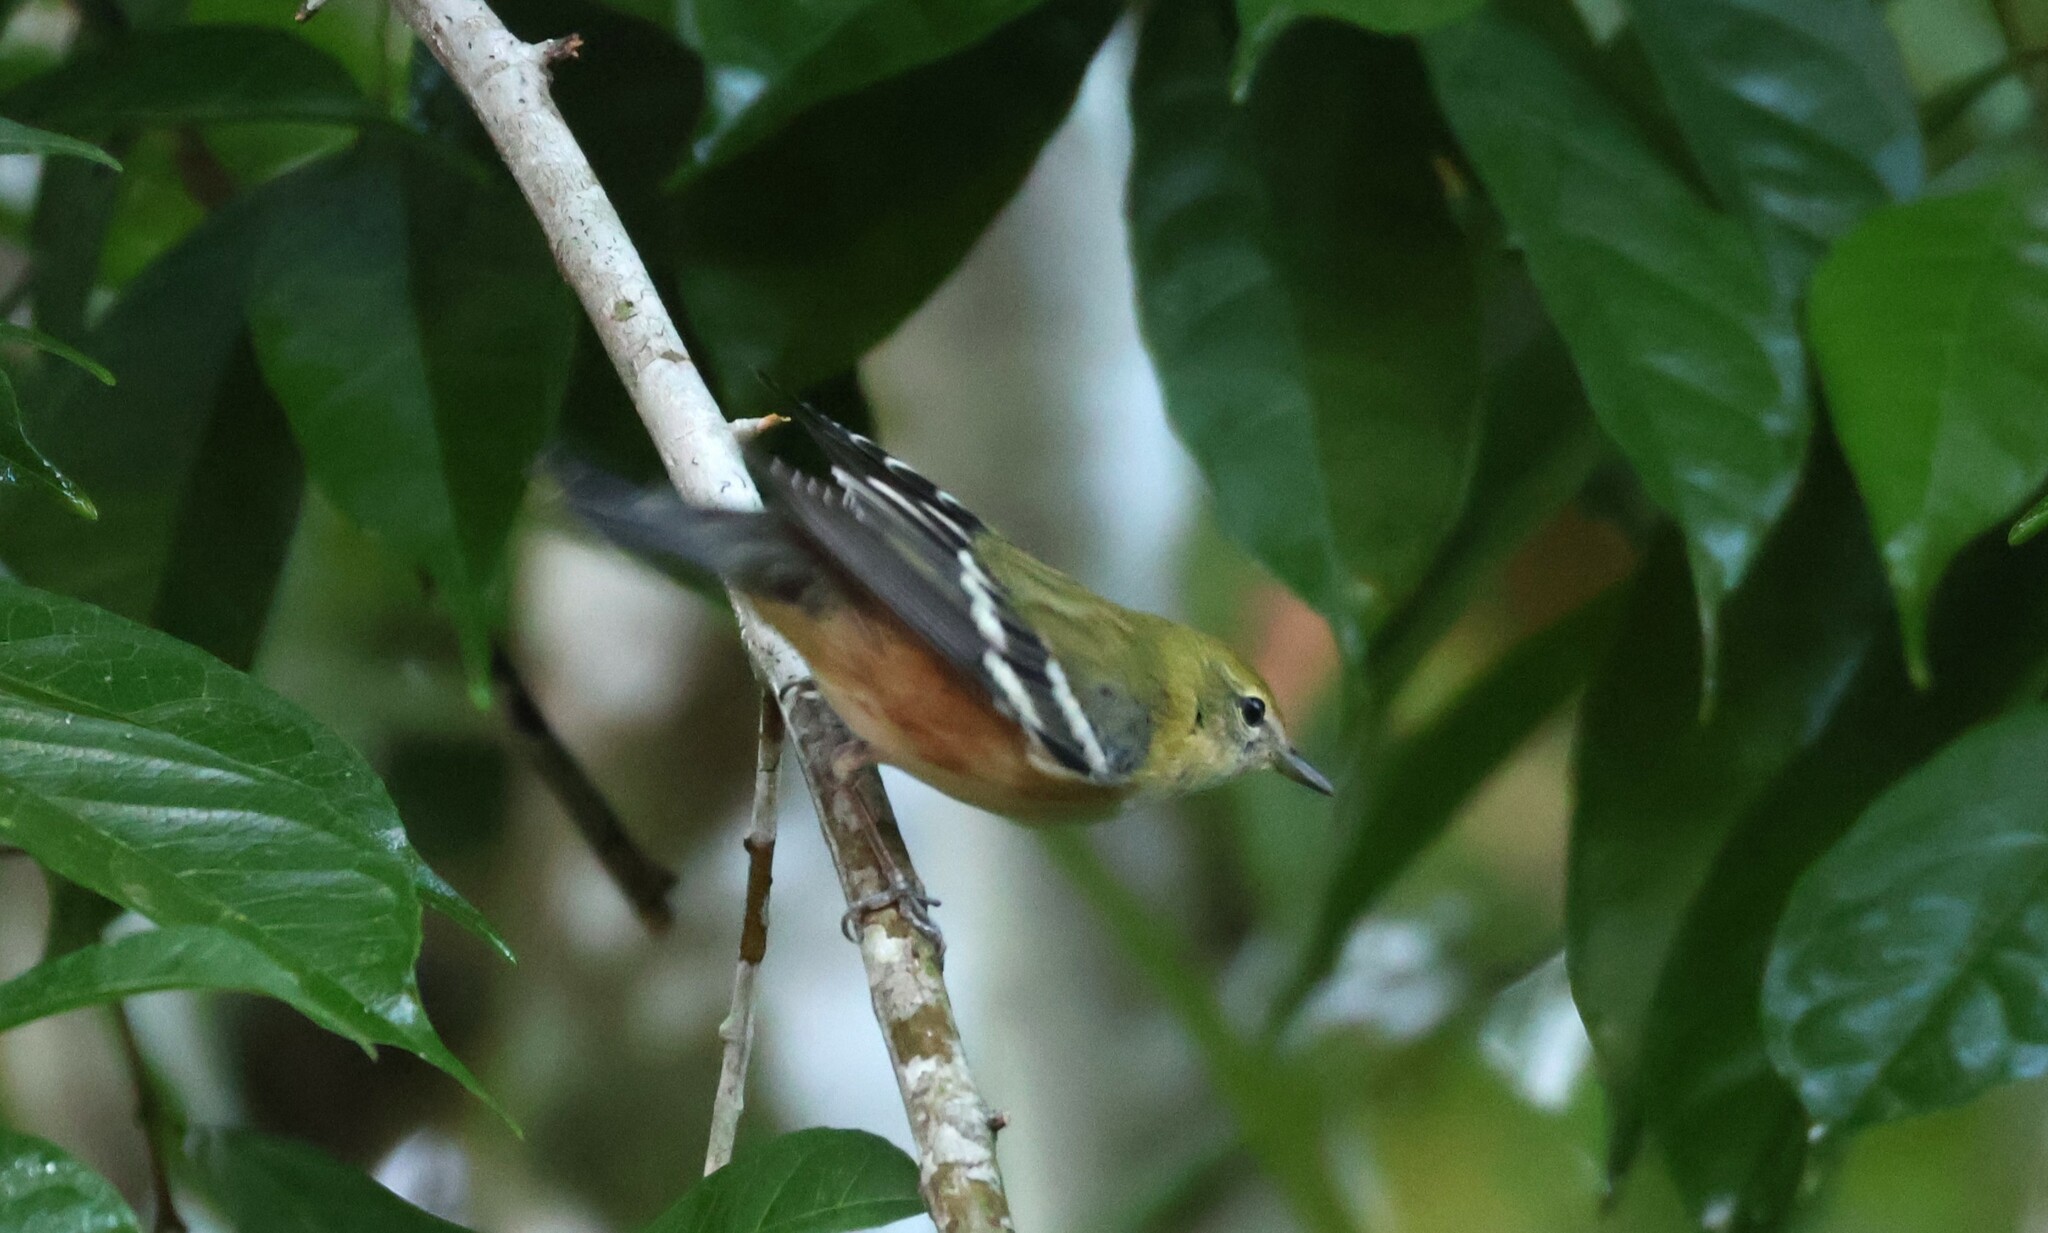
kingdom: Animalia
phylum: Chordata
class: Aves
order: Passeriformes
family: Parulidae
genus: Setophaga
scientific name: Setophaga castanea
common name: Bay-breasted warbler
